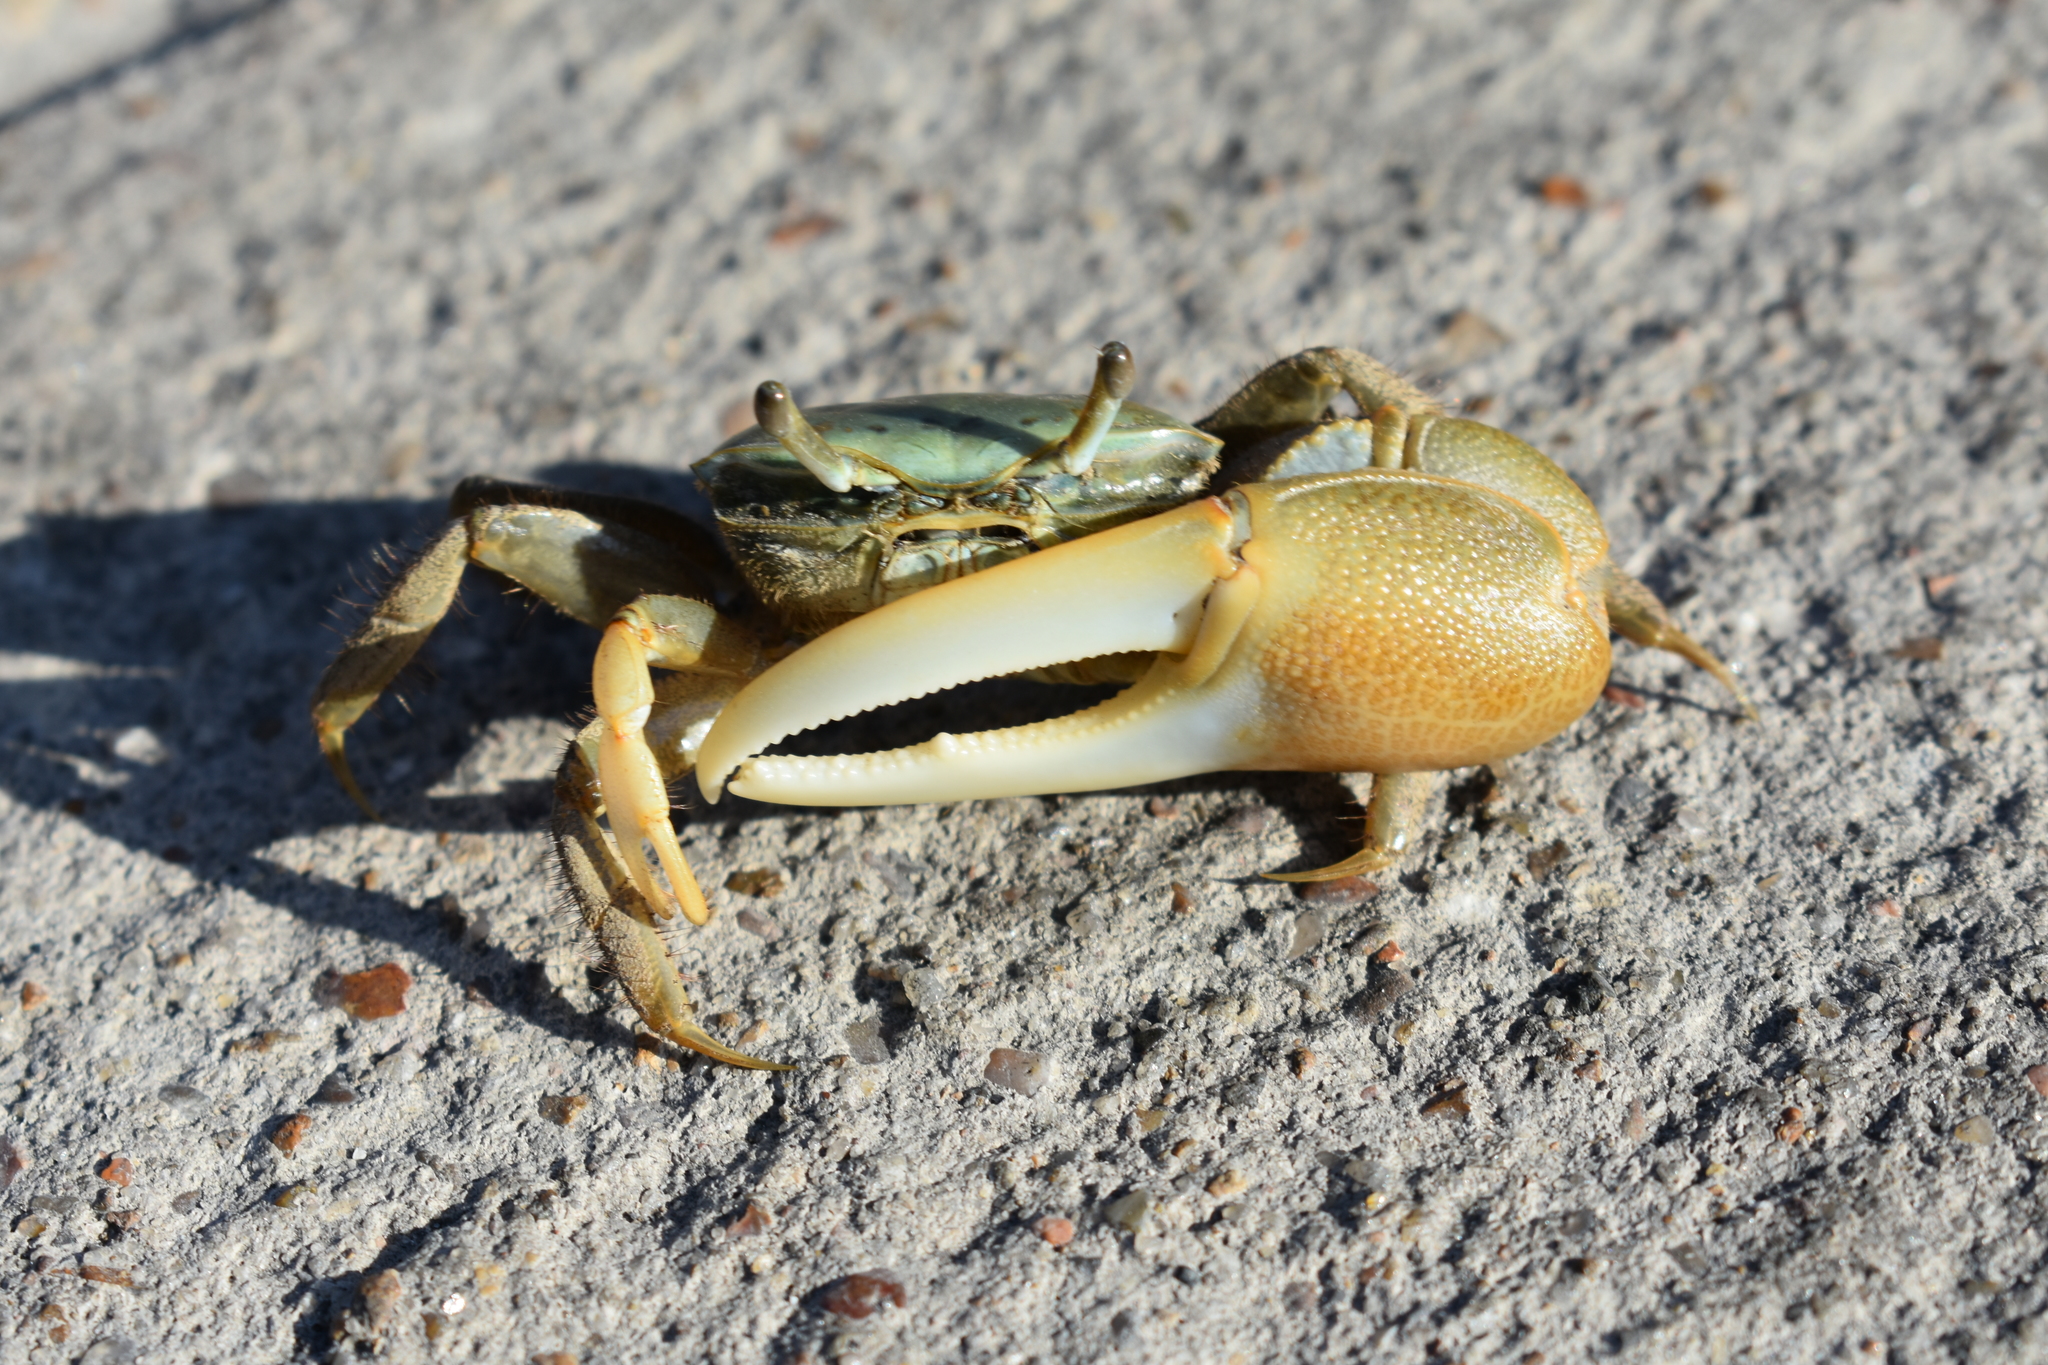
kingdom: Animalia
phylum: Arthropoda
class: Malacostraca
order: Decapoda
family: Ocypodidae
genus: Minuca
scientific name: Minuca longisignalis
